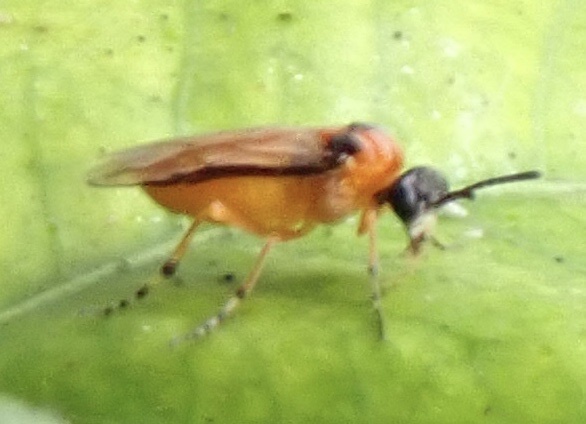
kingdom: Animalia
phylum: Arthropoda
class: Insecta
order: Hymenoptera
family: Tenthredinidae
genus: Athalia
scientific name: Athalia rosae
